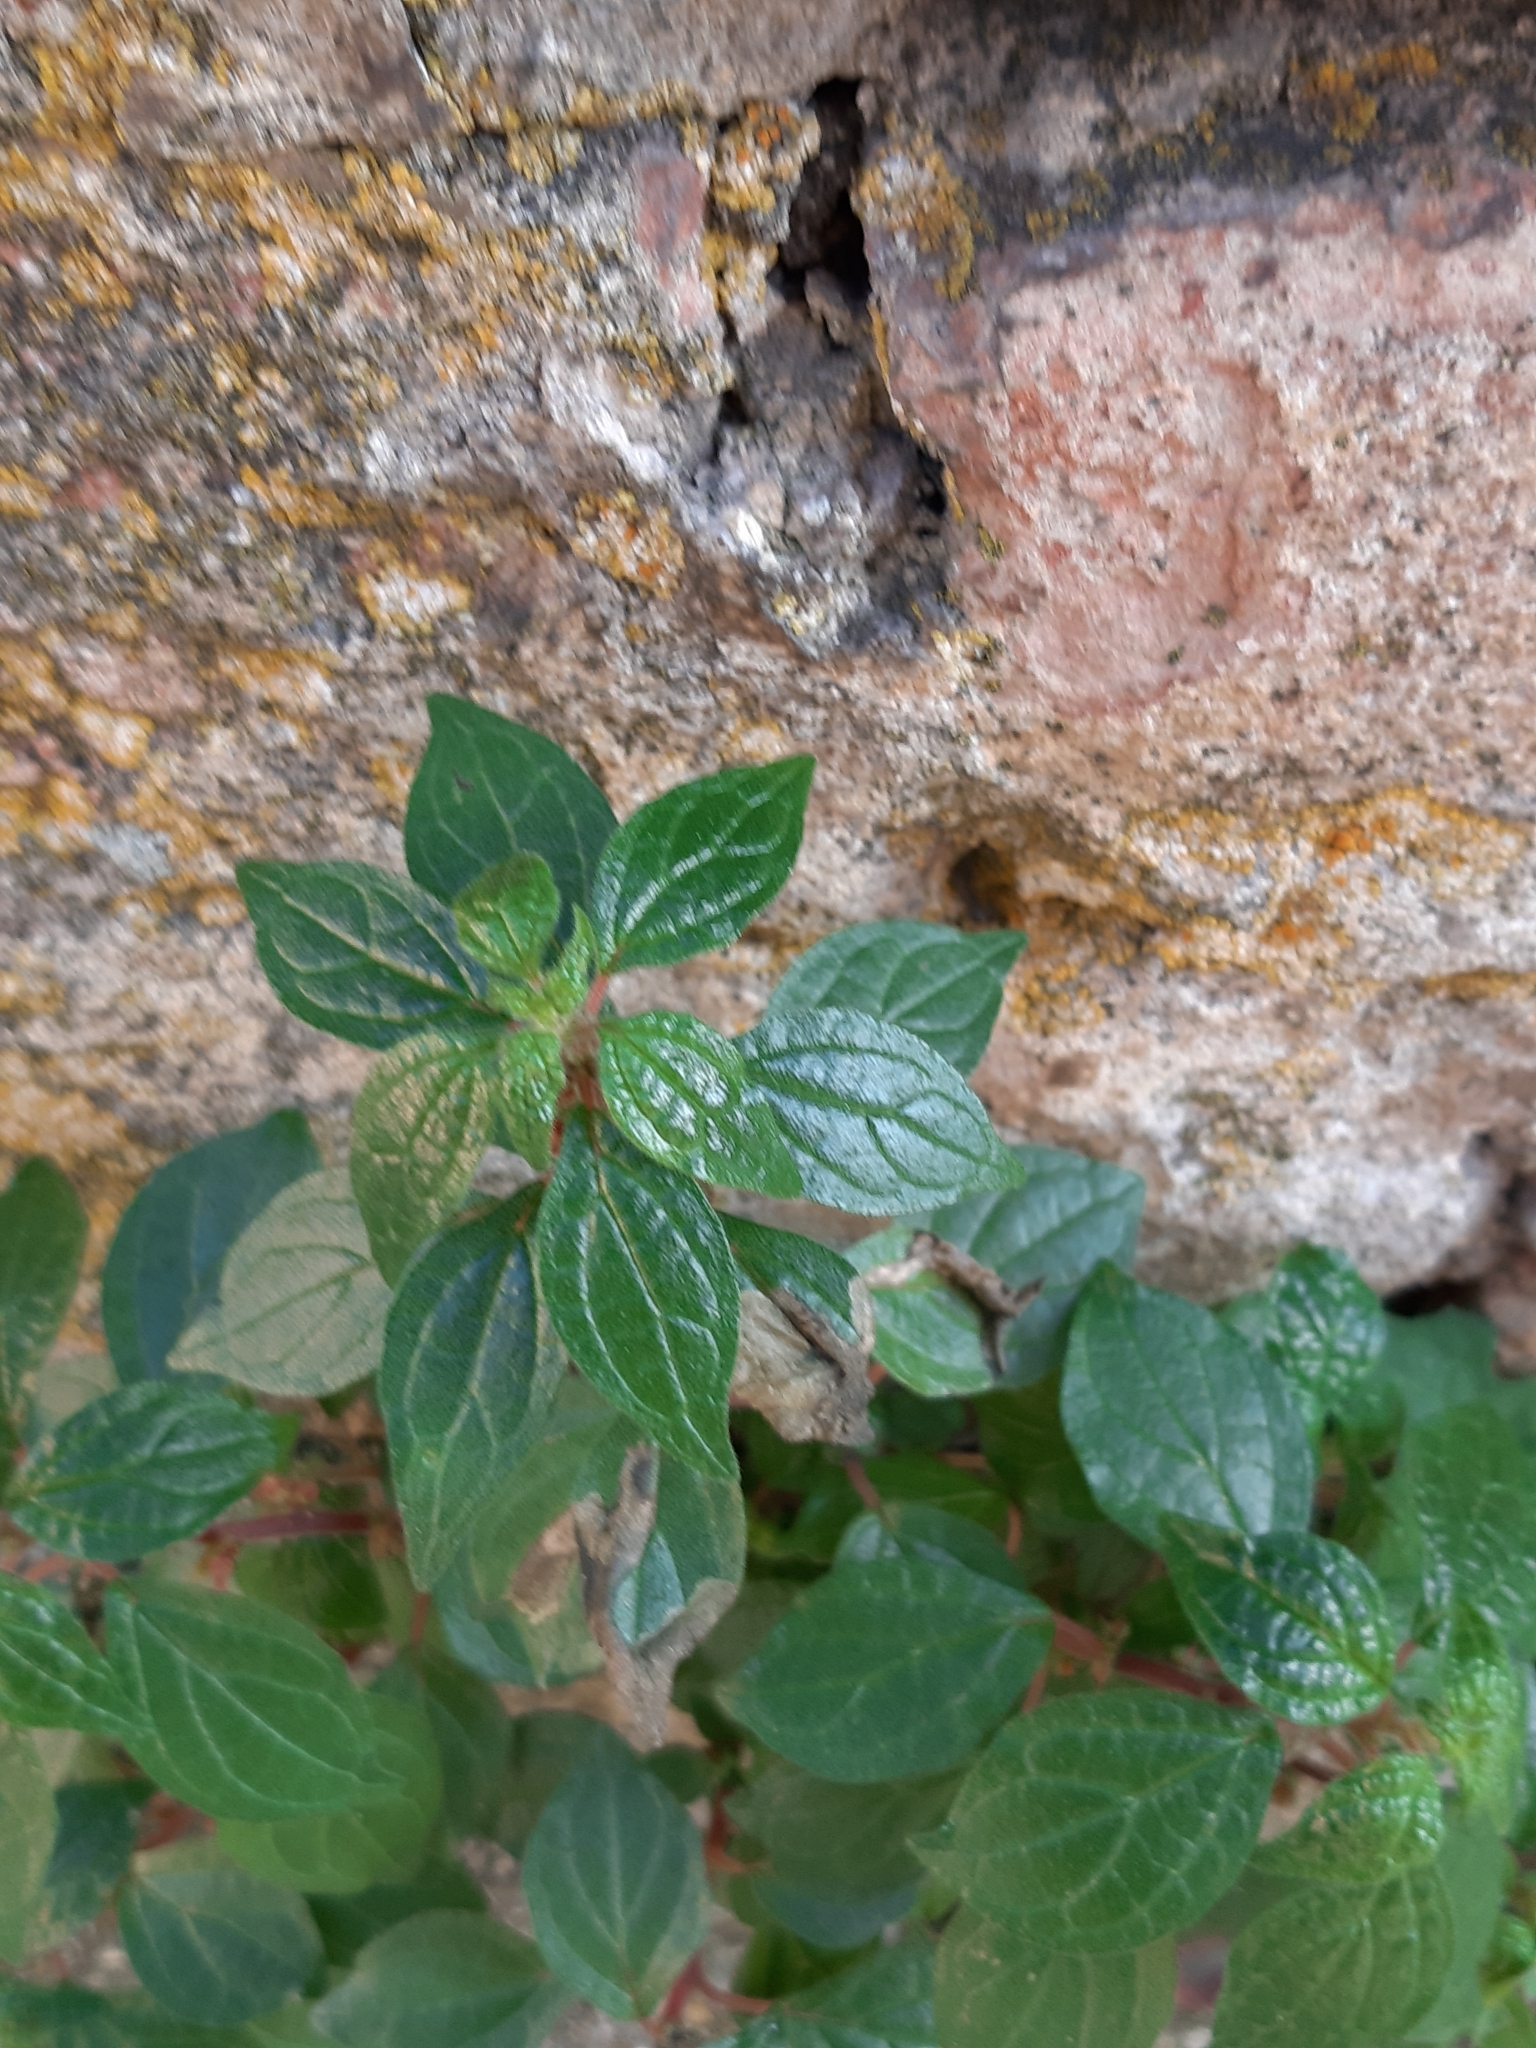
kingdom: Plantae
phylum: Tracheophyta
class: Magnoliopsida
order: Rosales
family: Urticaceae
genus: Parietaria
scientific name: Parietaria judaica
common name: Pellitory-of-the-wall
